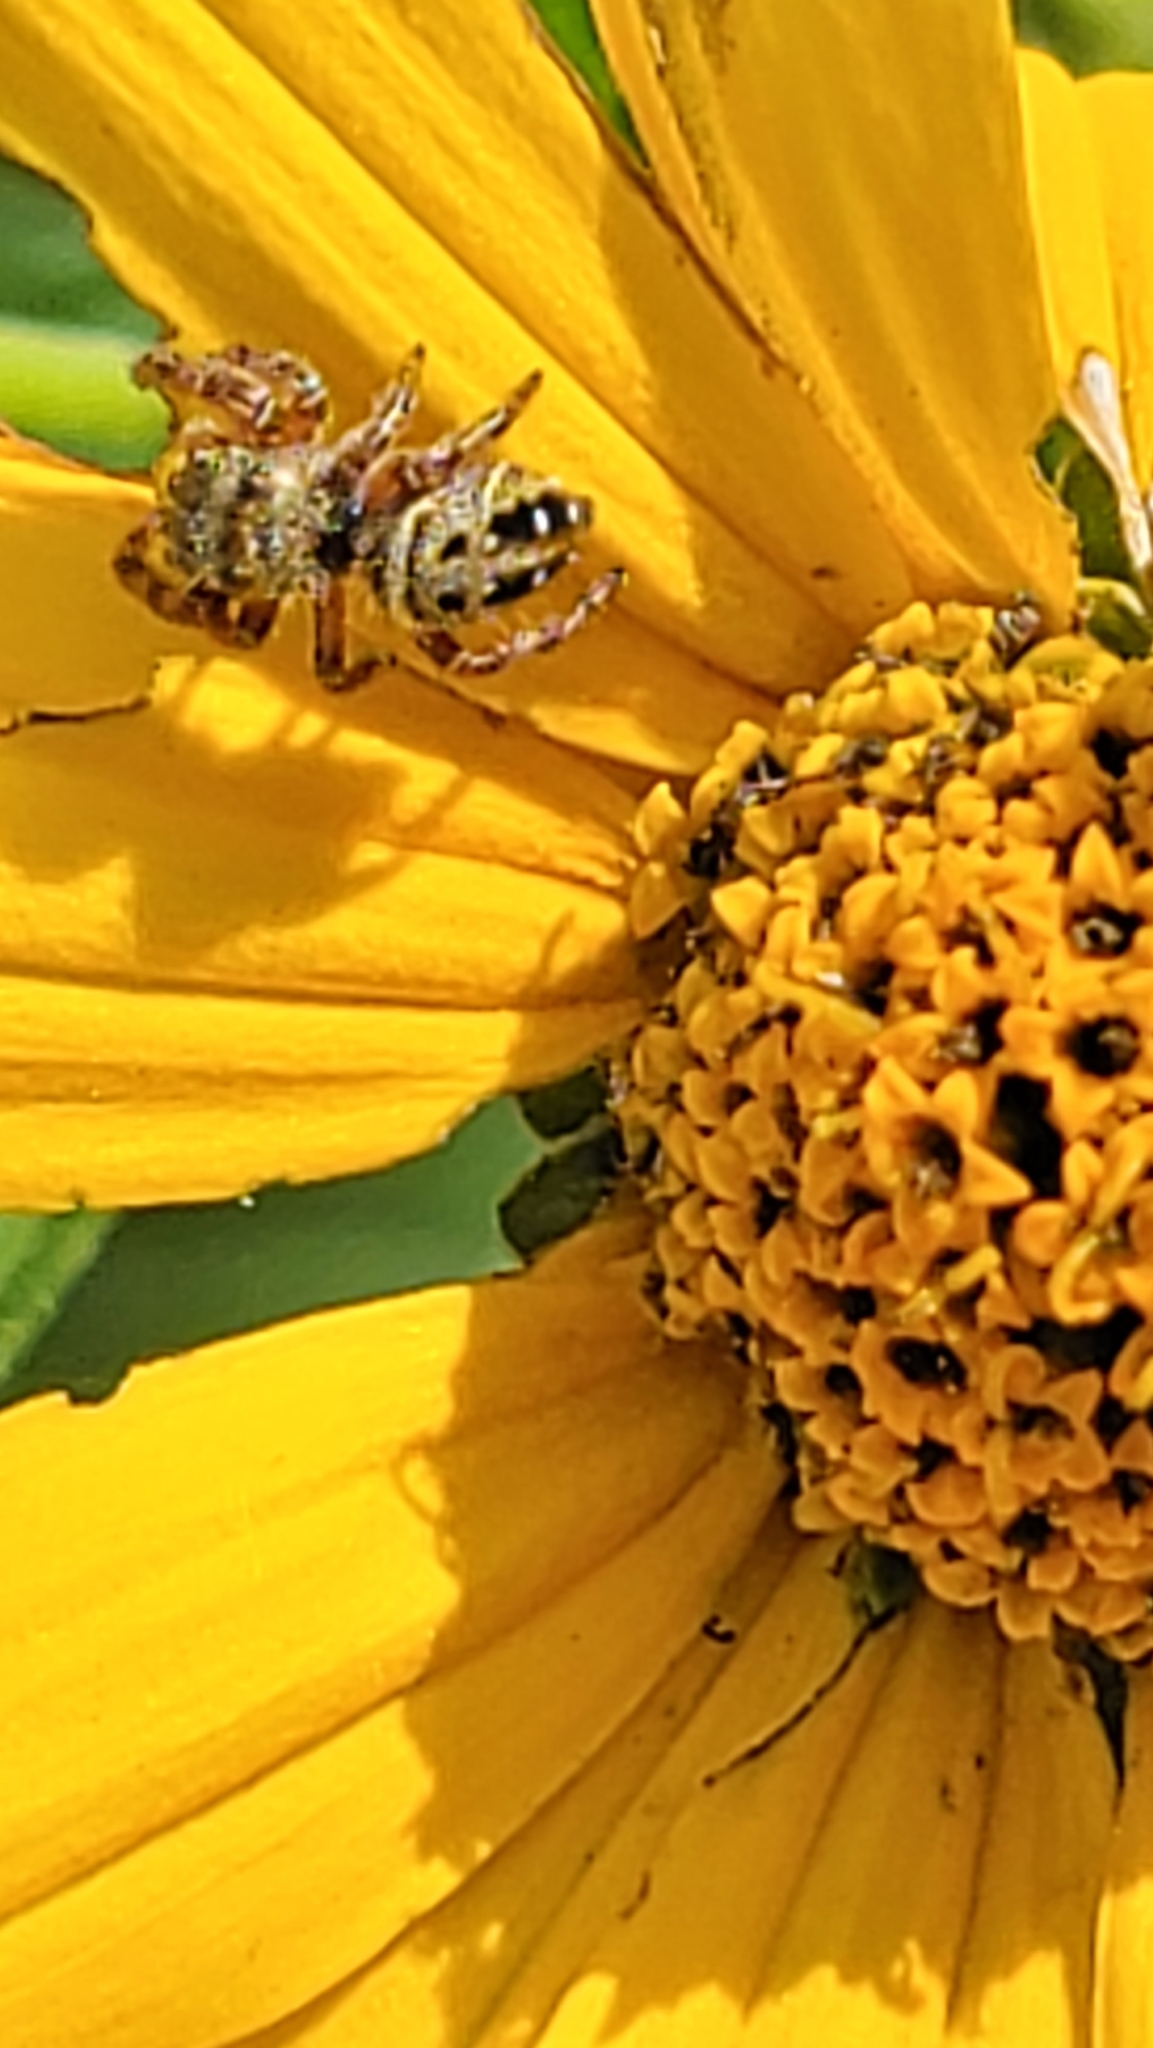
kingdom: Animalia
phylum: Arthropoda
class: Arachnida
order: Araneae
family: Salticidae
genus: Phidippus
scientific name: Phidippus clarus
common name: Brilliant jumping spider
